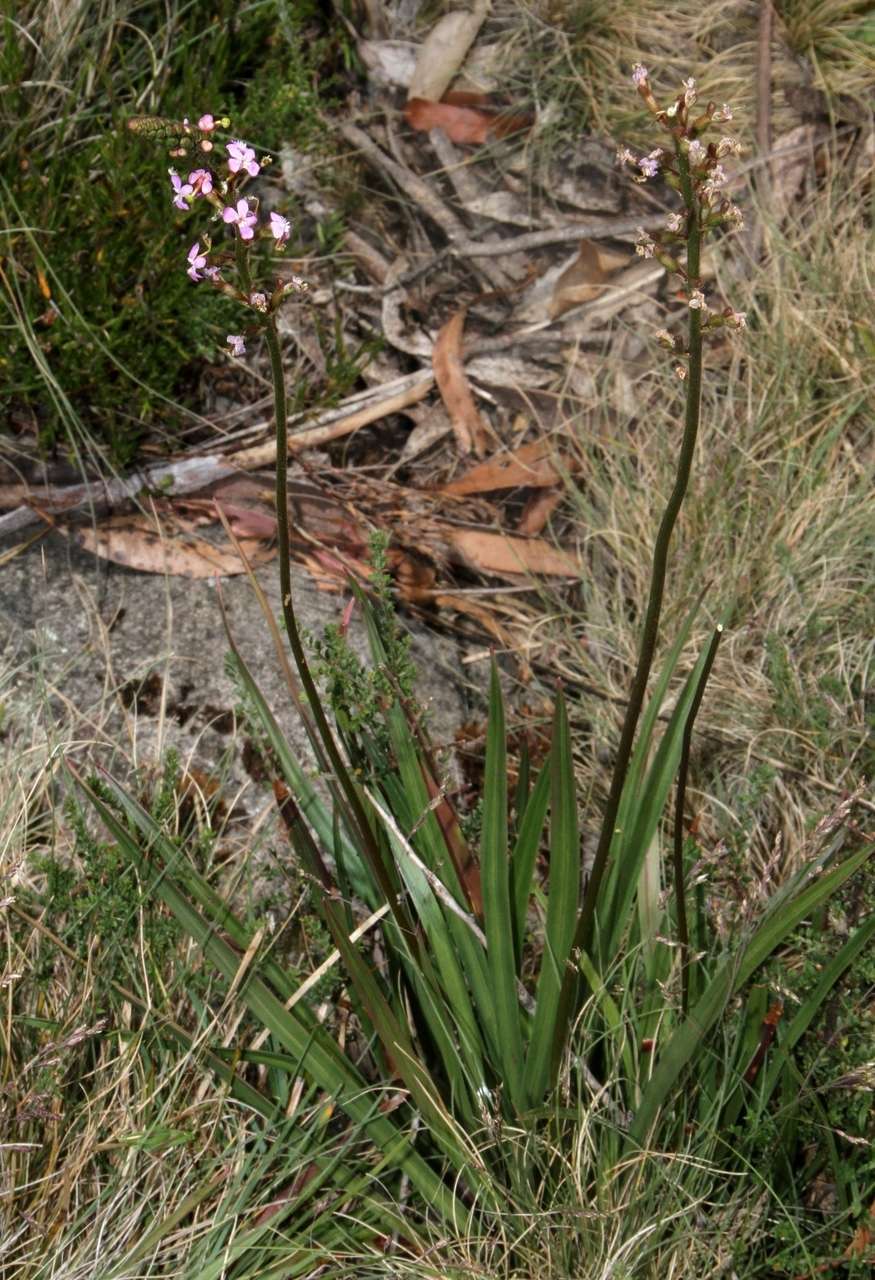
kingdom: Plantae
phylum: Tracheophyta
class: Magnoliopsida
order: Asterales
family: Stylidiaceae
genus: Stylidium
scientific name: Stylidium armeria
